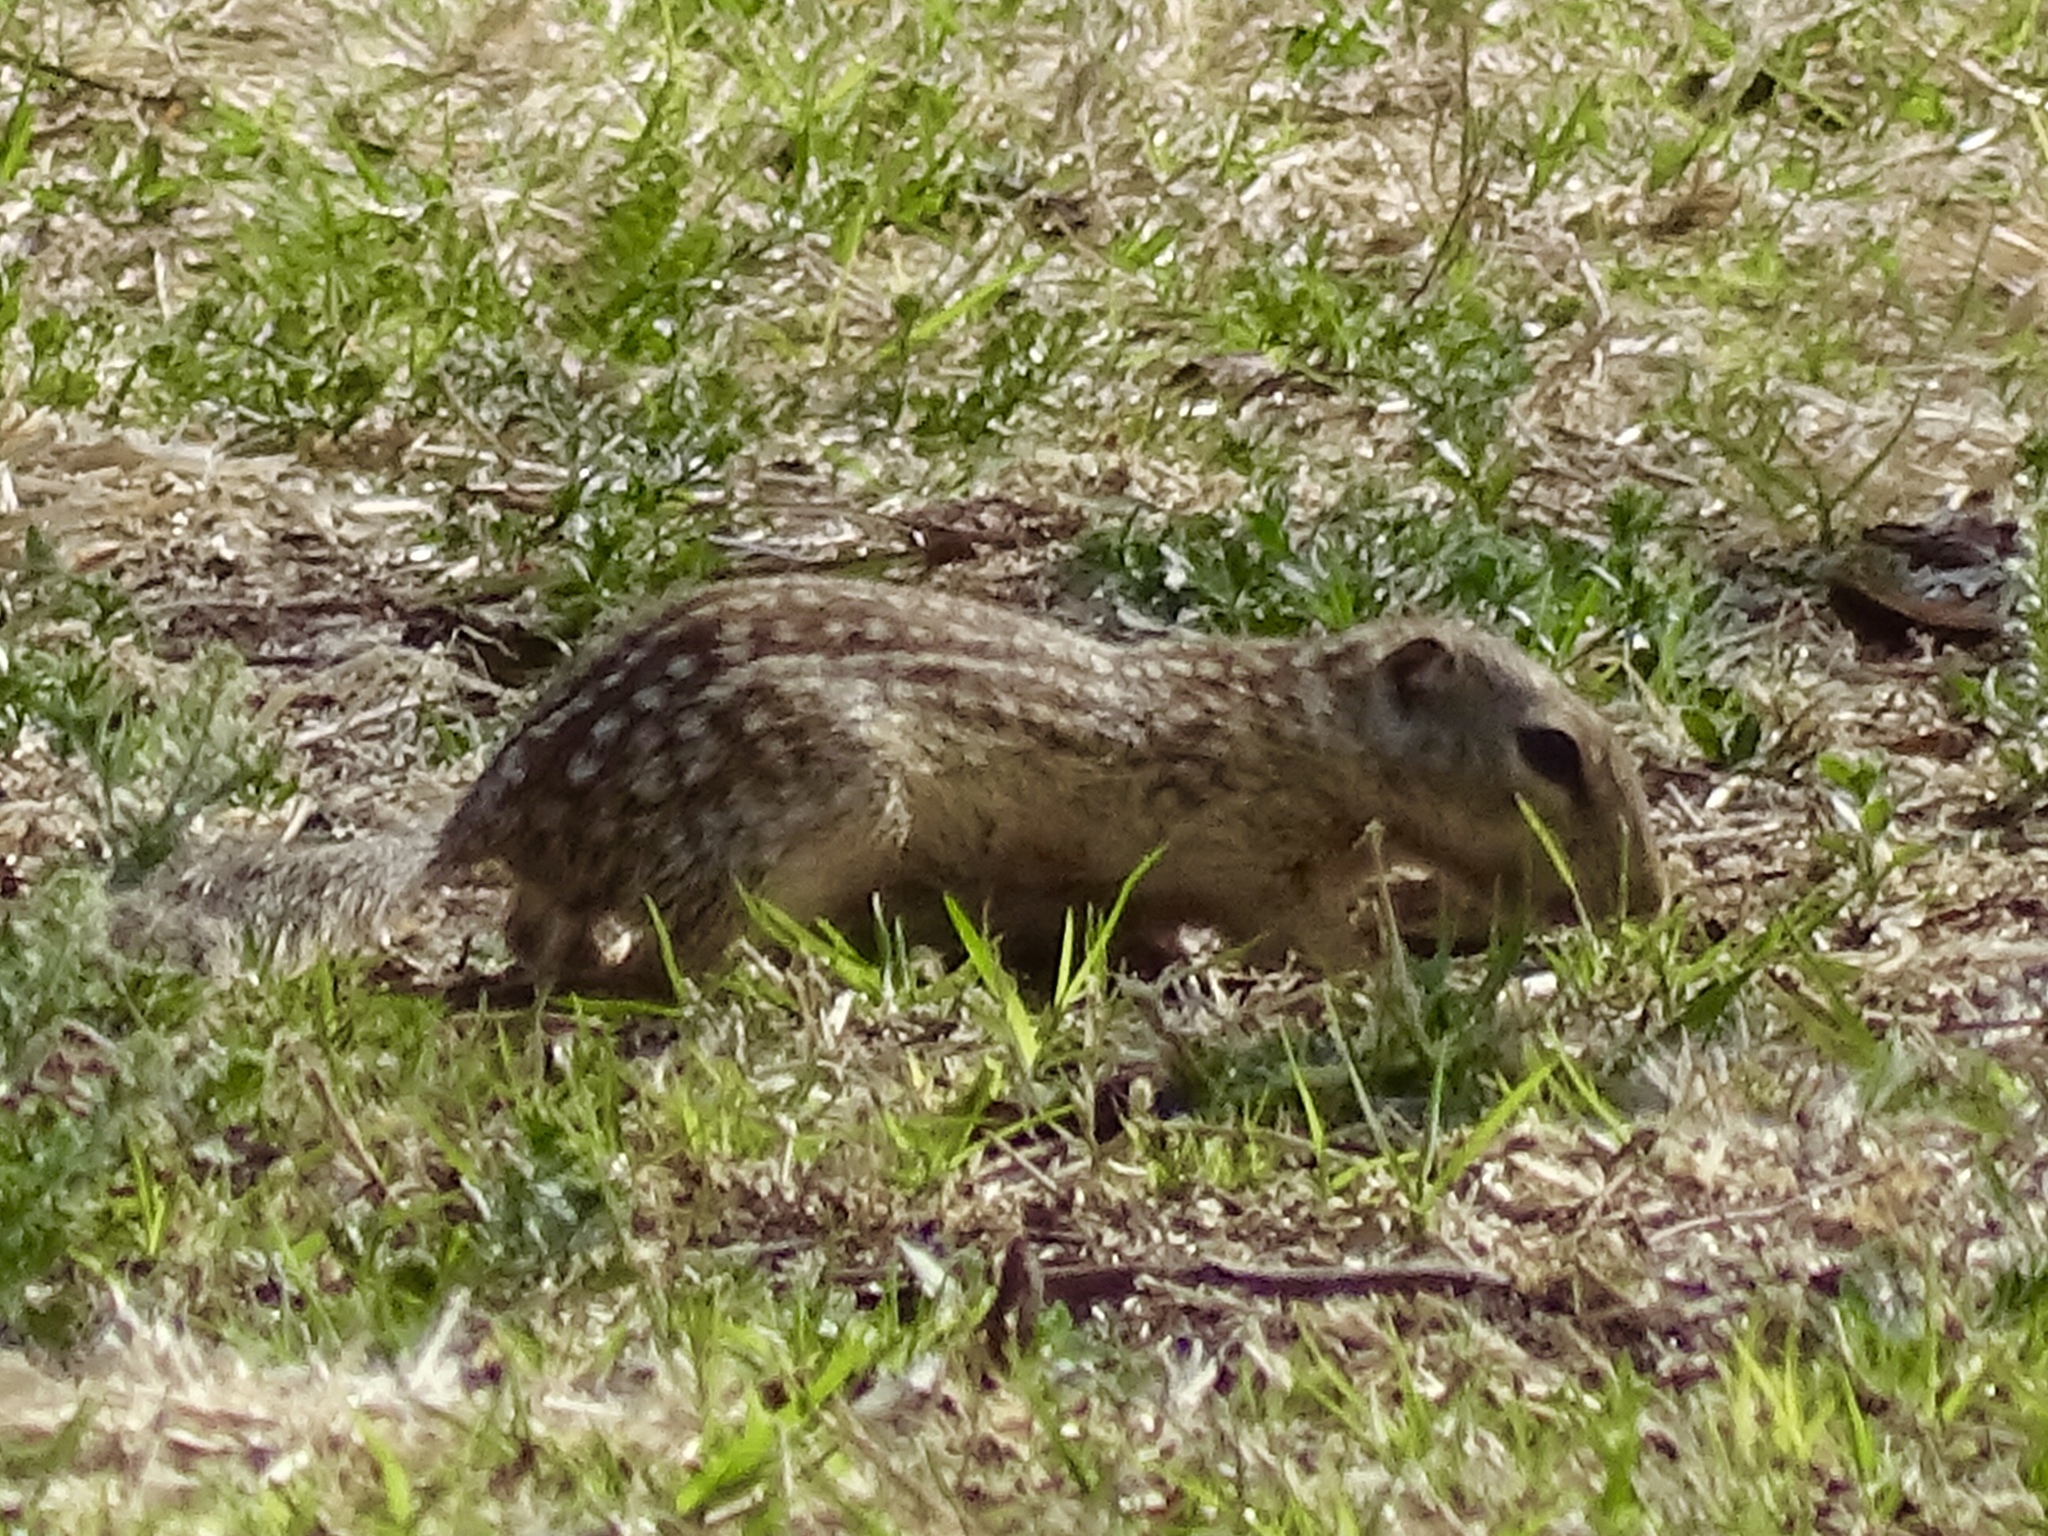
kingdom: Animalia
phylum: Chordata
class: Mammalia
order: Rodentia
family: Sciuridae
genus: Ictidomys
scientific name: Ictidomys parvidens
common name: Rio grande ground squirrel
